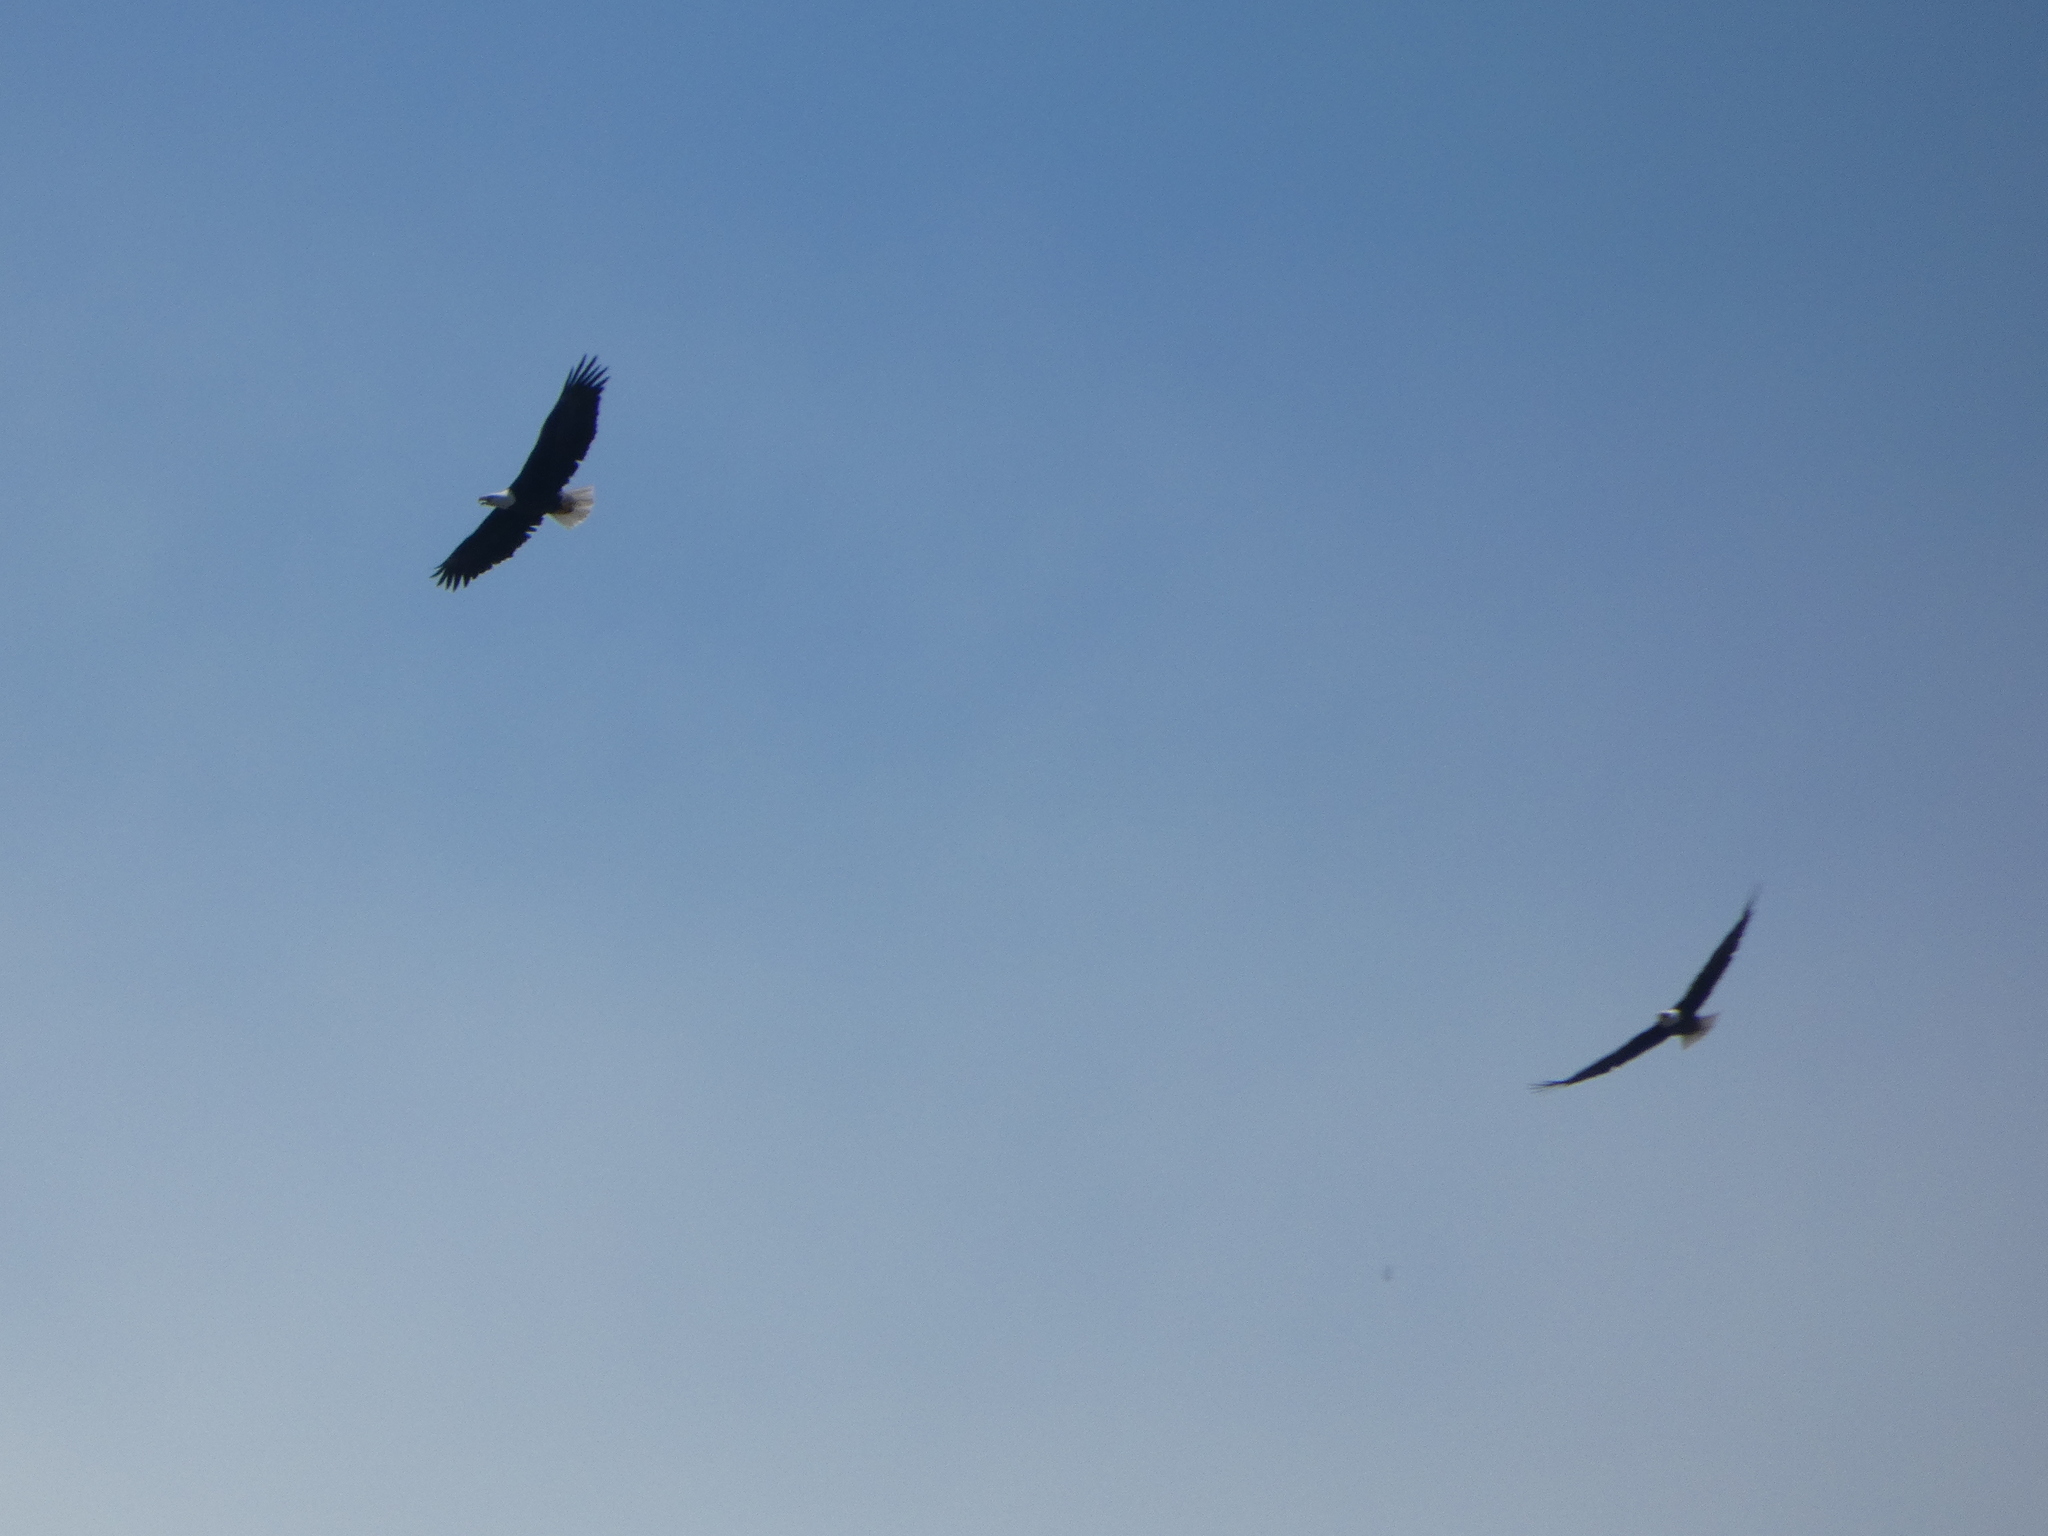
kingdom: Animalia
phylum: Chordata
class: Aves
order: Accipitriformes
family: Accipitridae
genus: Haliaeetus
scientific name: Haliaeetus leucocephalus
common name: Bald eagle
